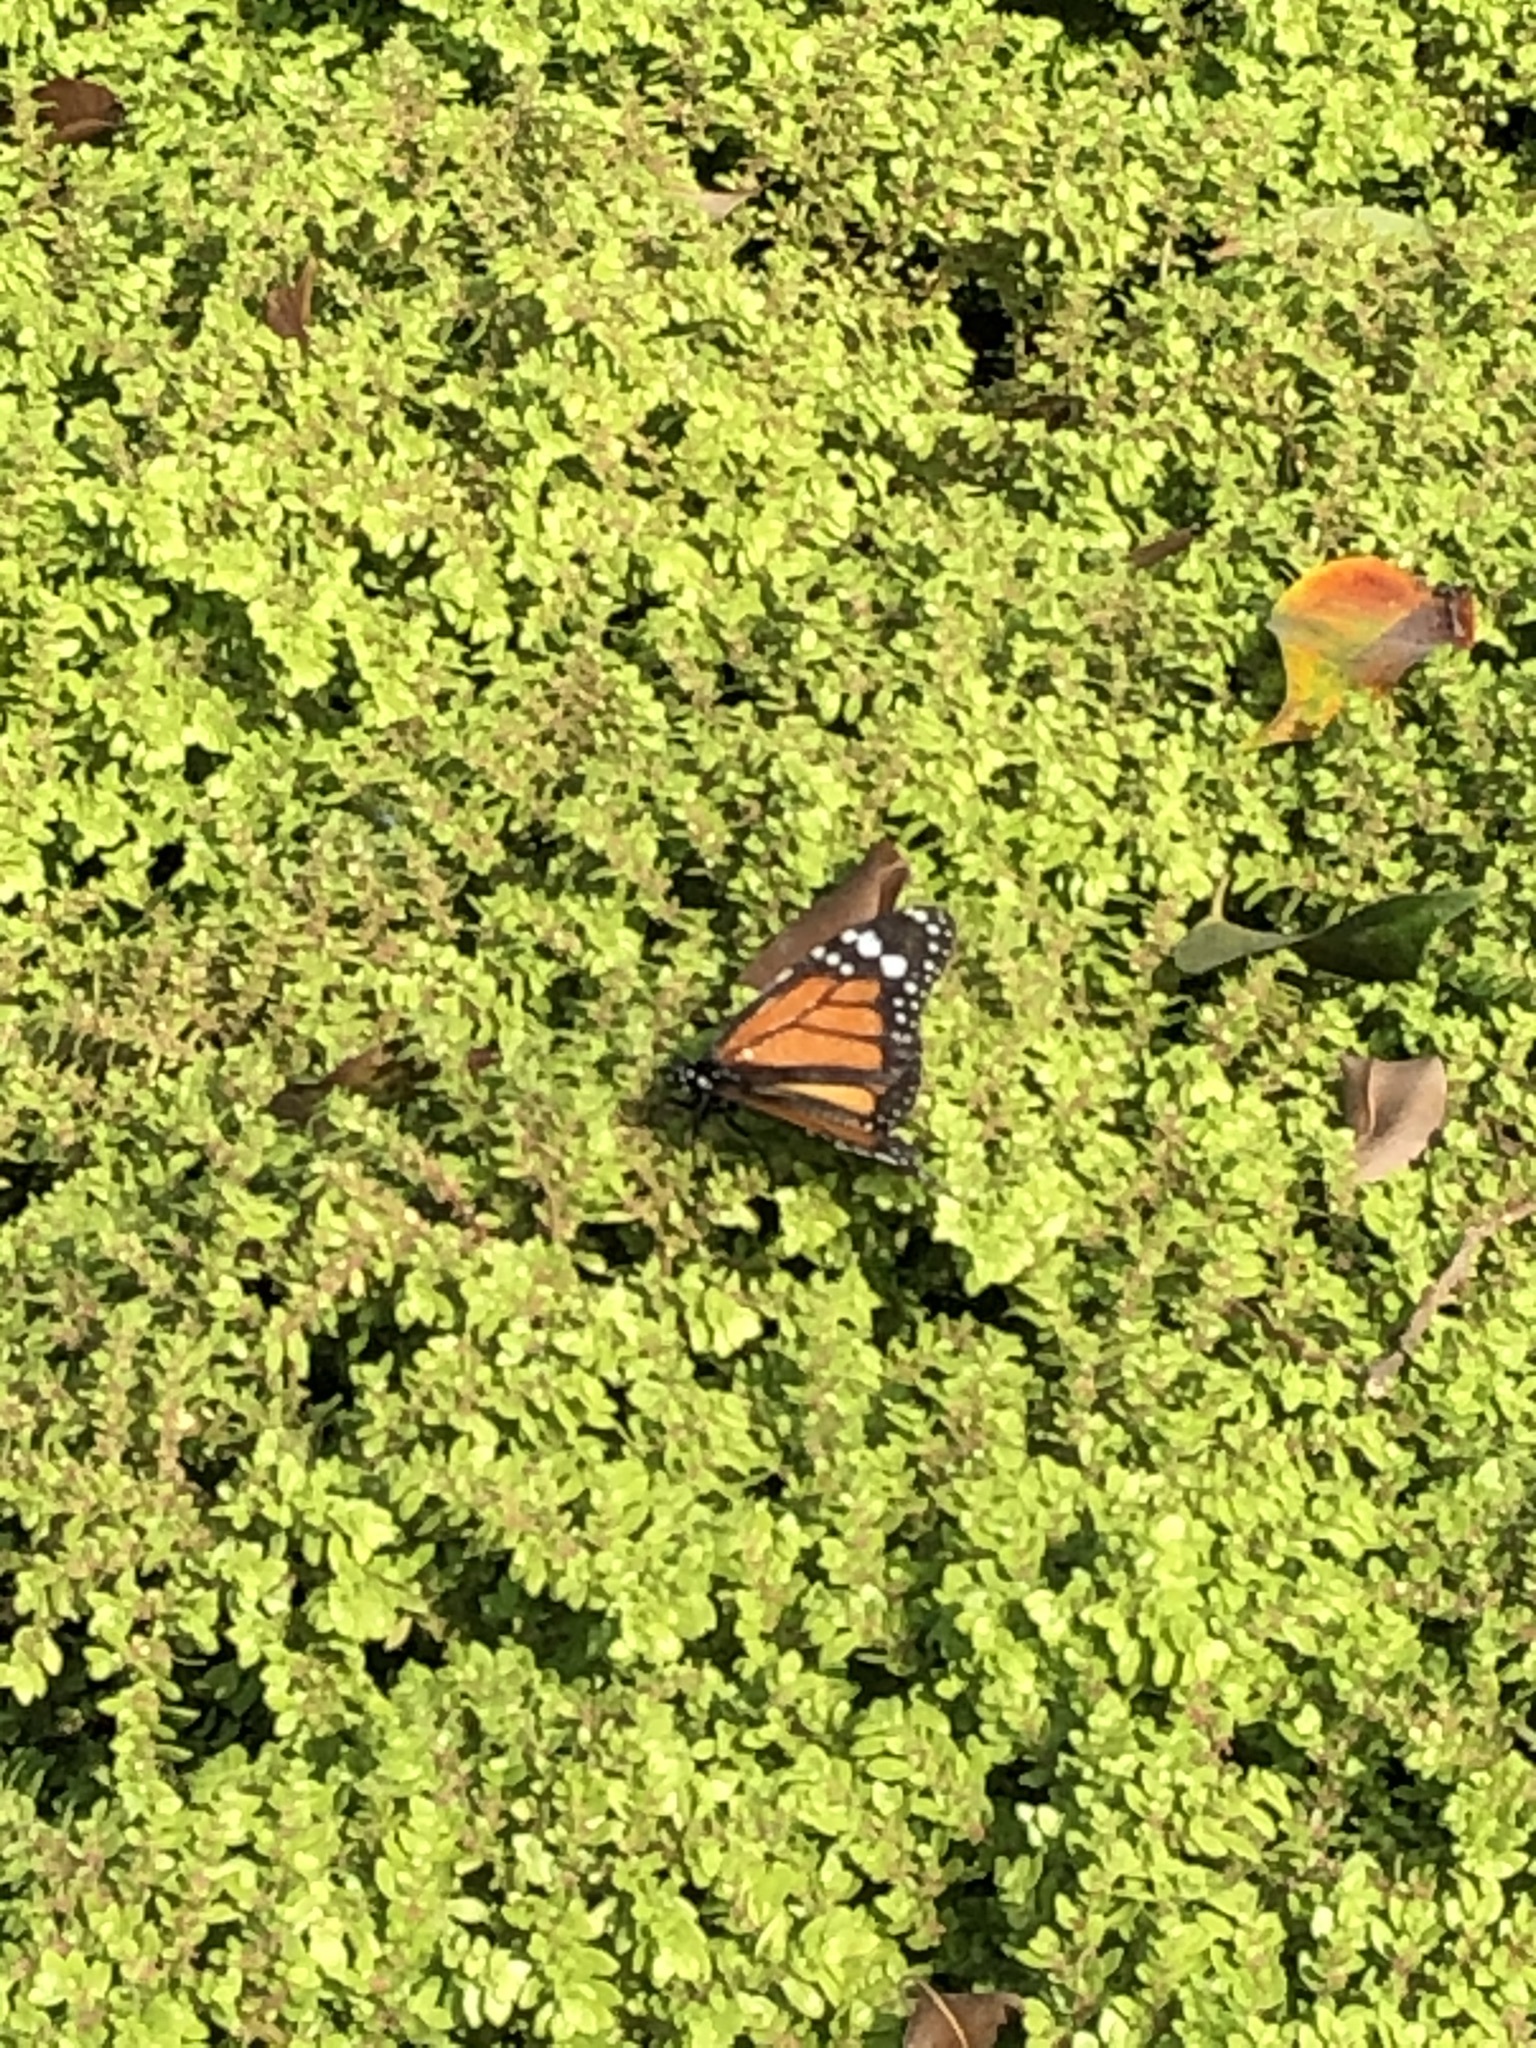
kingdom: Animalia
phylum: Arthropoda
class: Insecta
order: Lepidoptera
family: Nymphalidae
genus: Danaus
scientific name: Danaus plexippus
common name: Monarch
